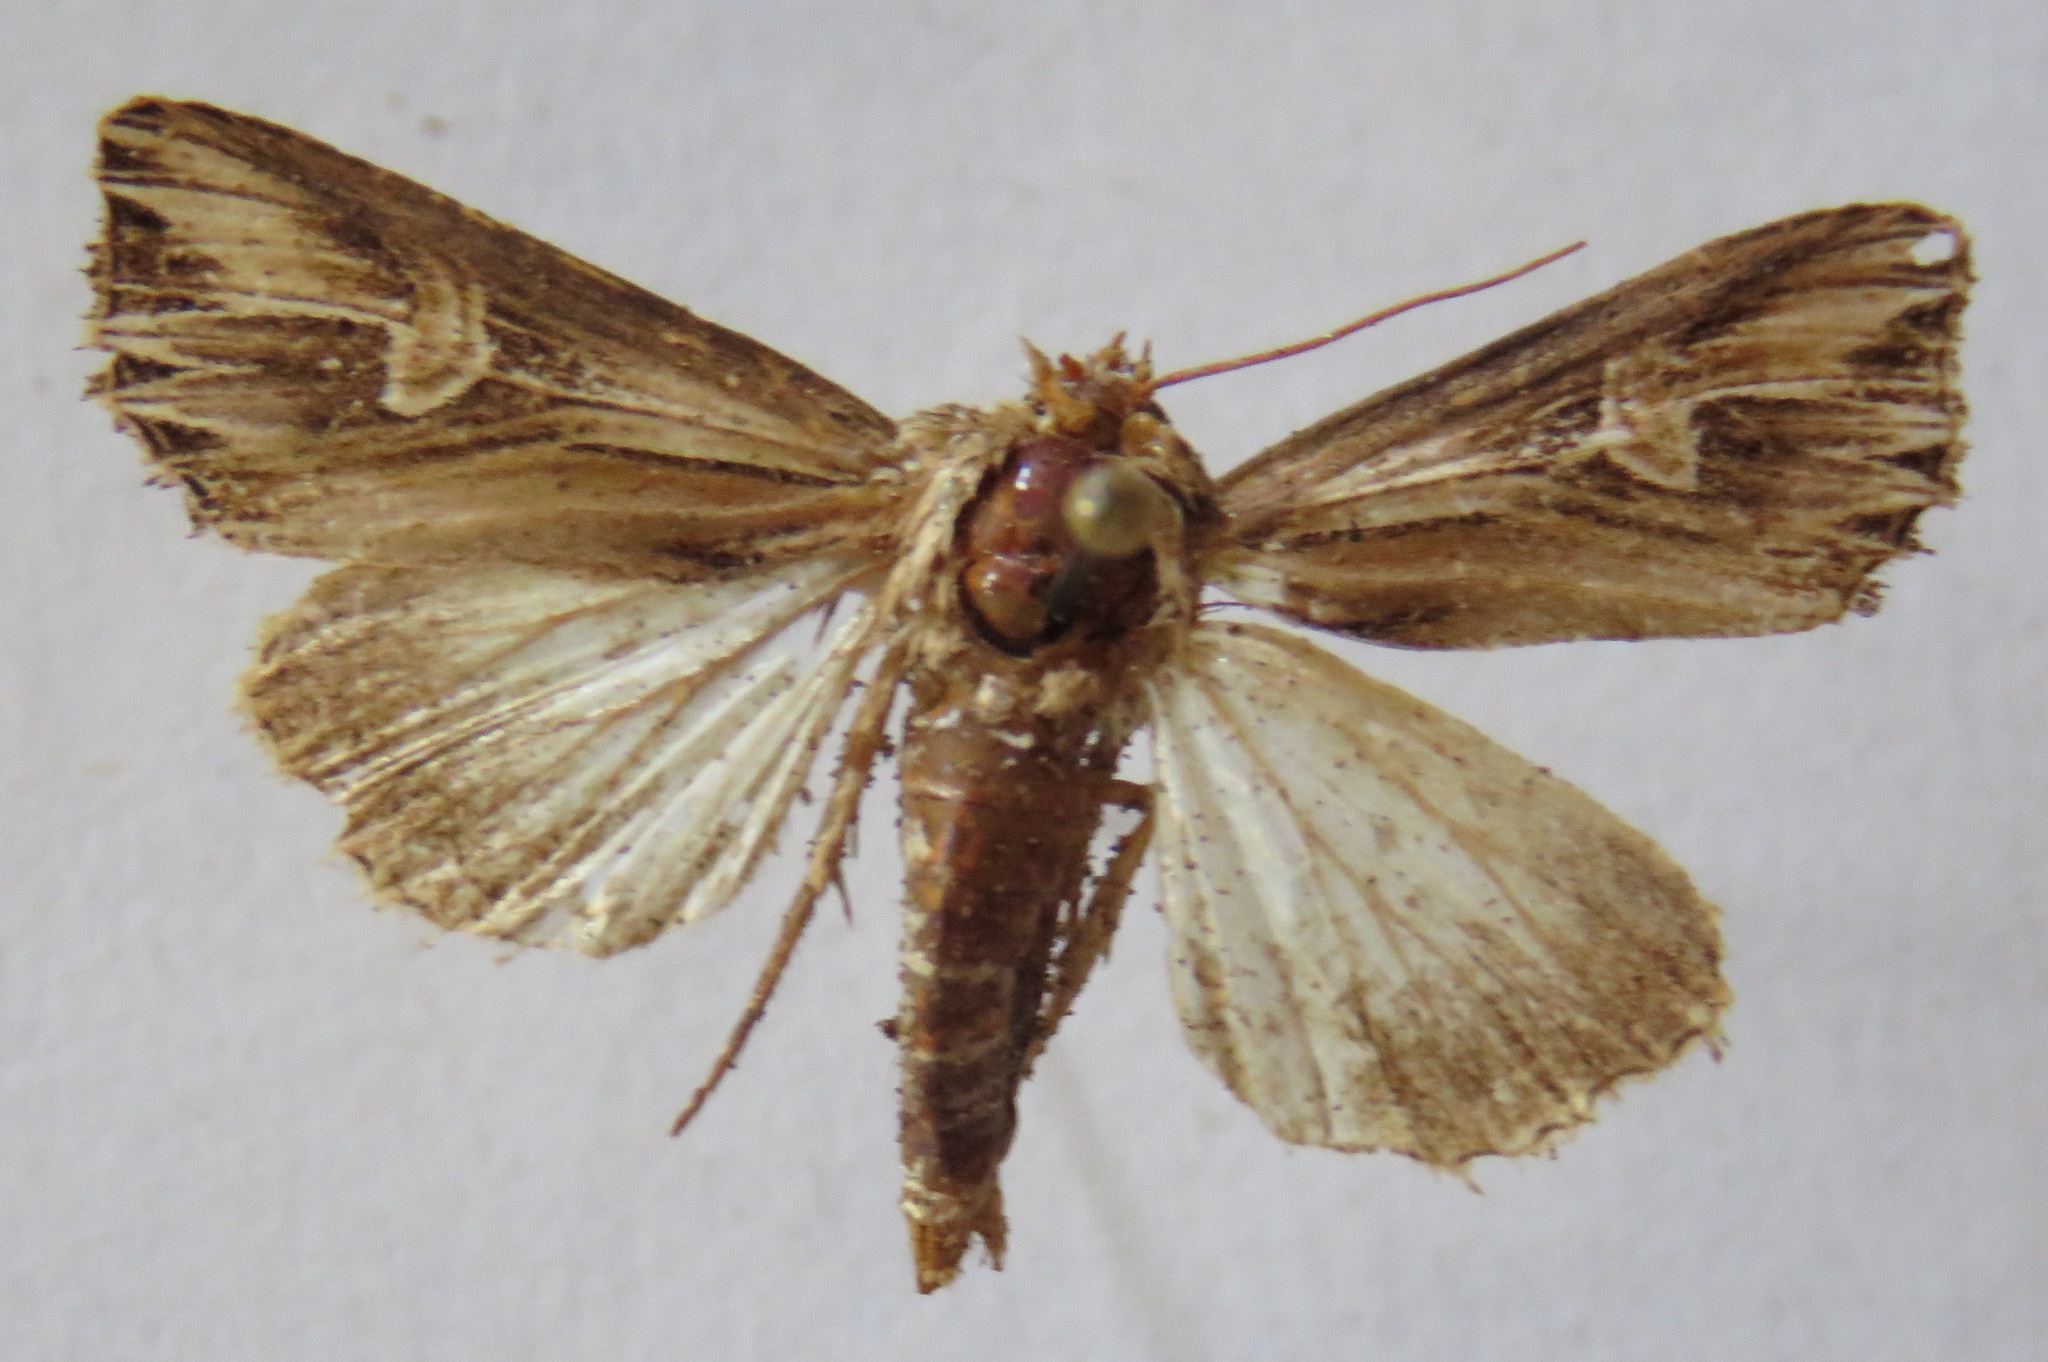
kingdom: Animalia
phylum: Arthropoda
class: Insecta
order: Lepidoptera
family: Noctuidae
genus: Actinotia
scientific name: Actinotia polyodon
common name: Purple cloud
